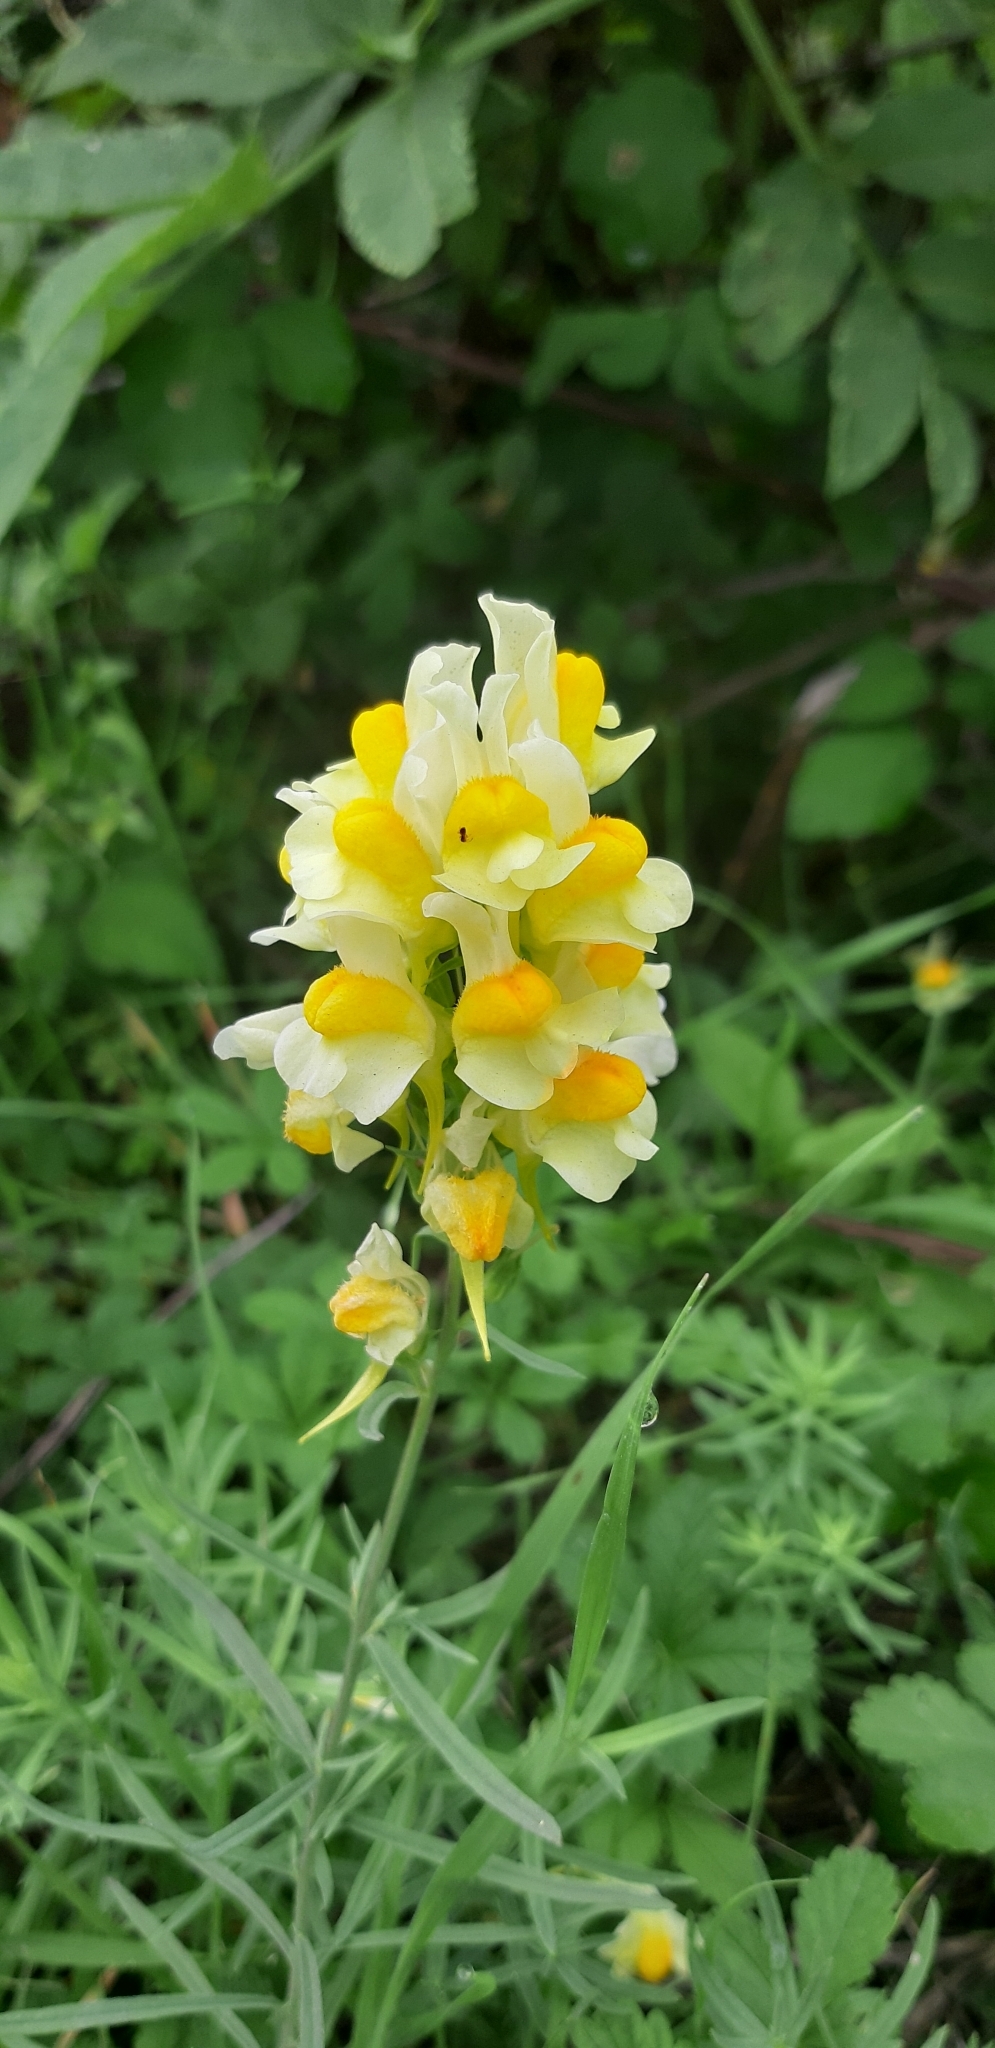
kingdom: Plantae
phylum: Tracheophyta
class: Magnoliopsida
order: Lamiales
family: Plantaginaceae
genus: Linaria
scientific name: Linaria vulgaris
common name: Butter and eggs
